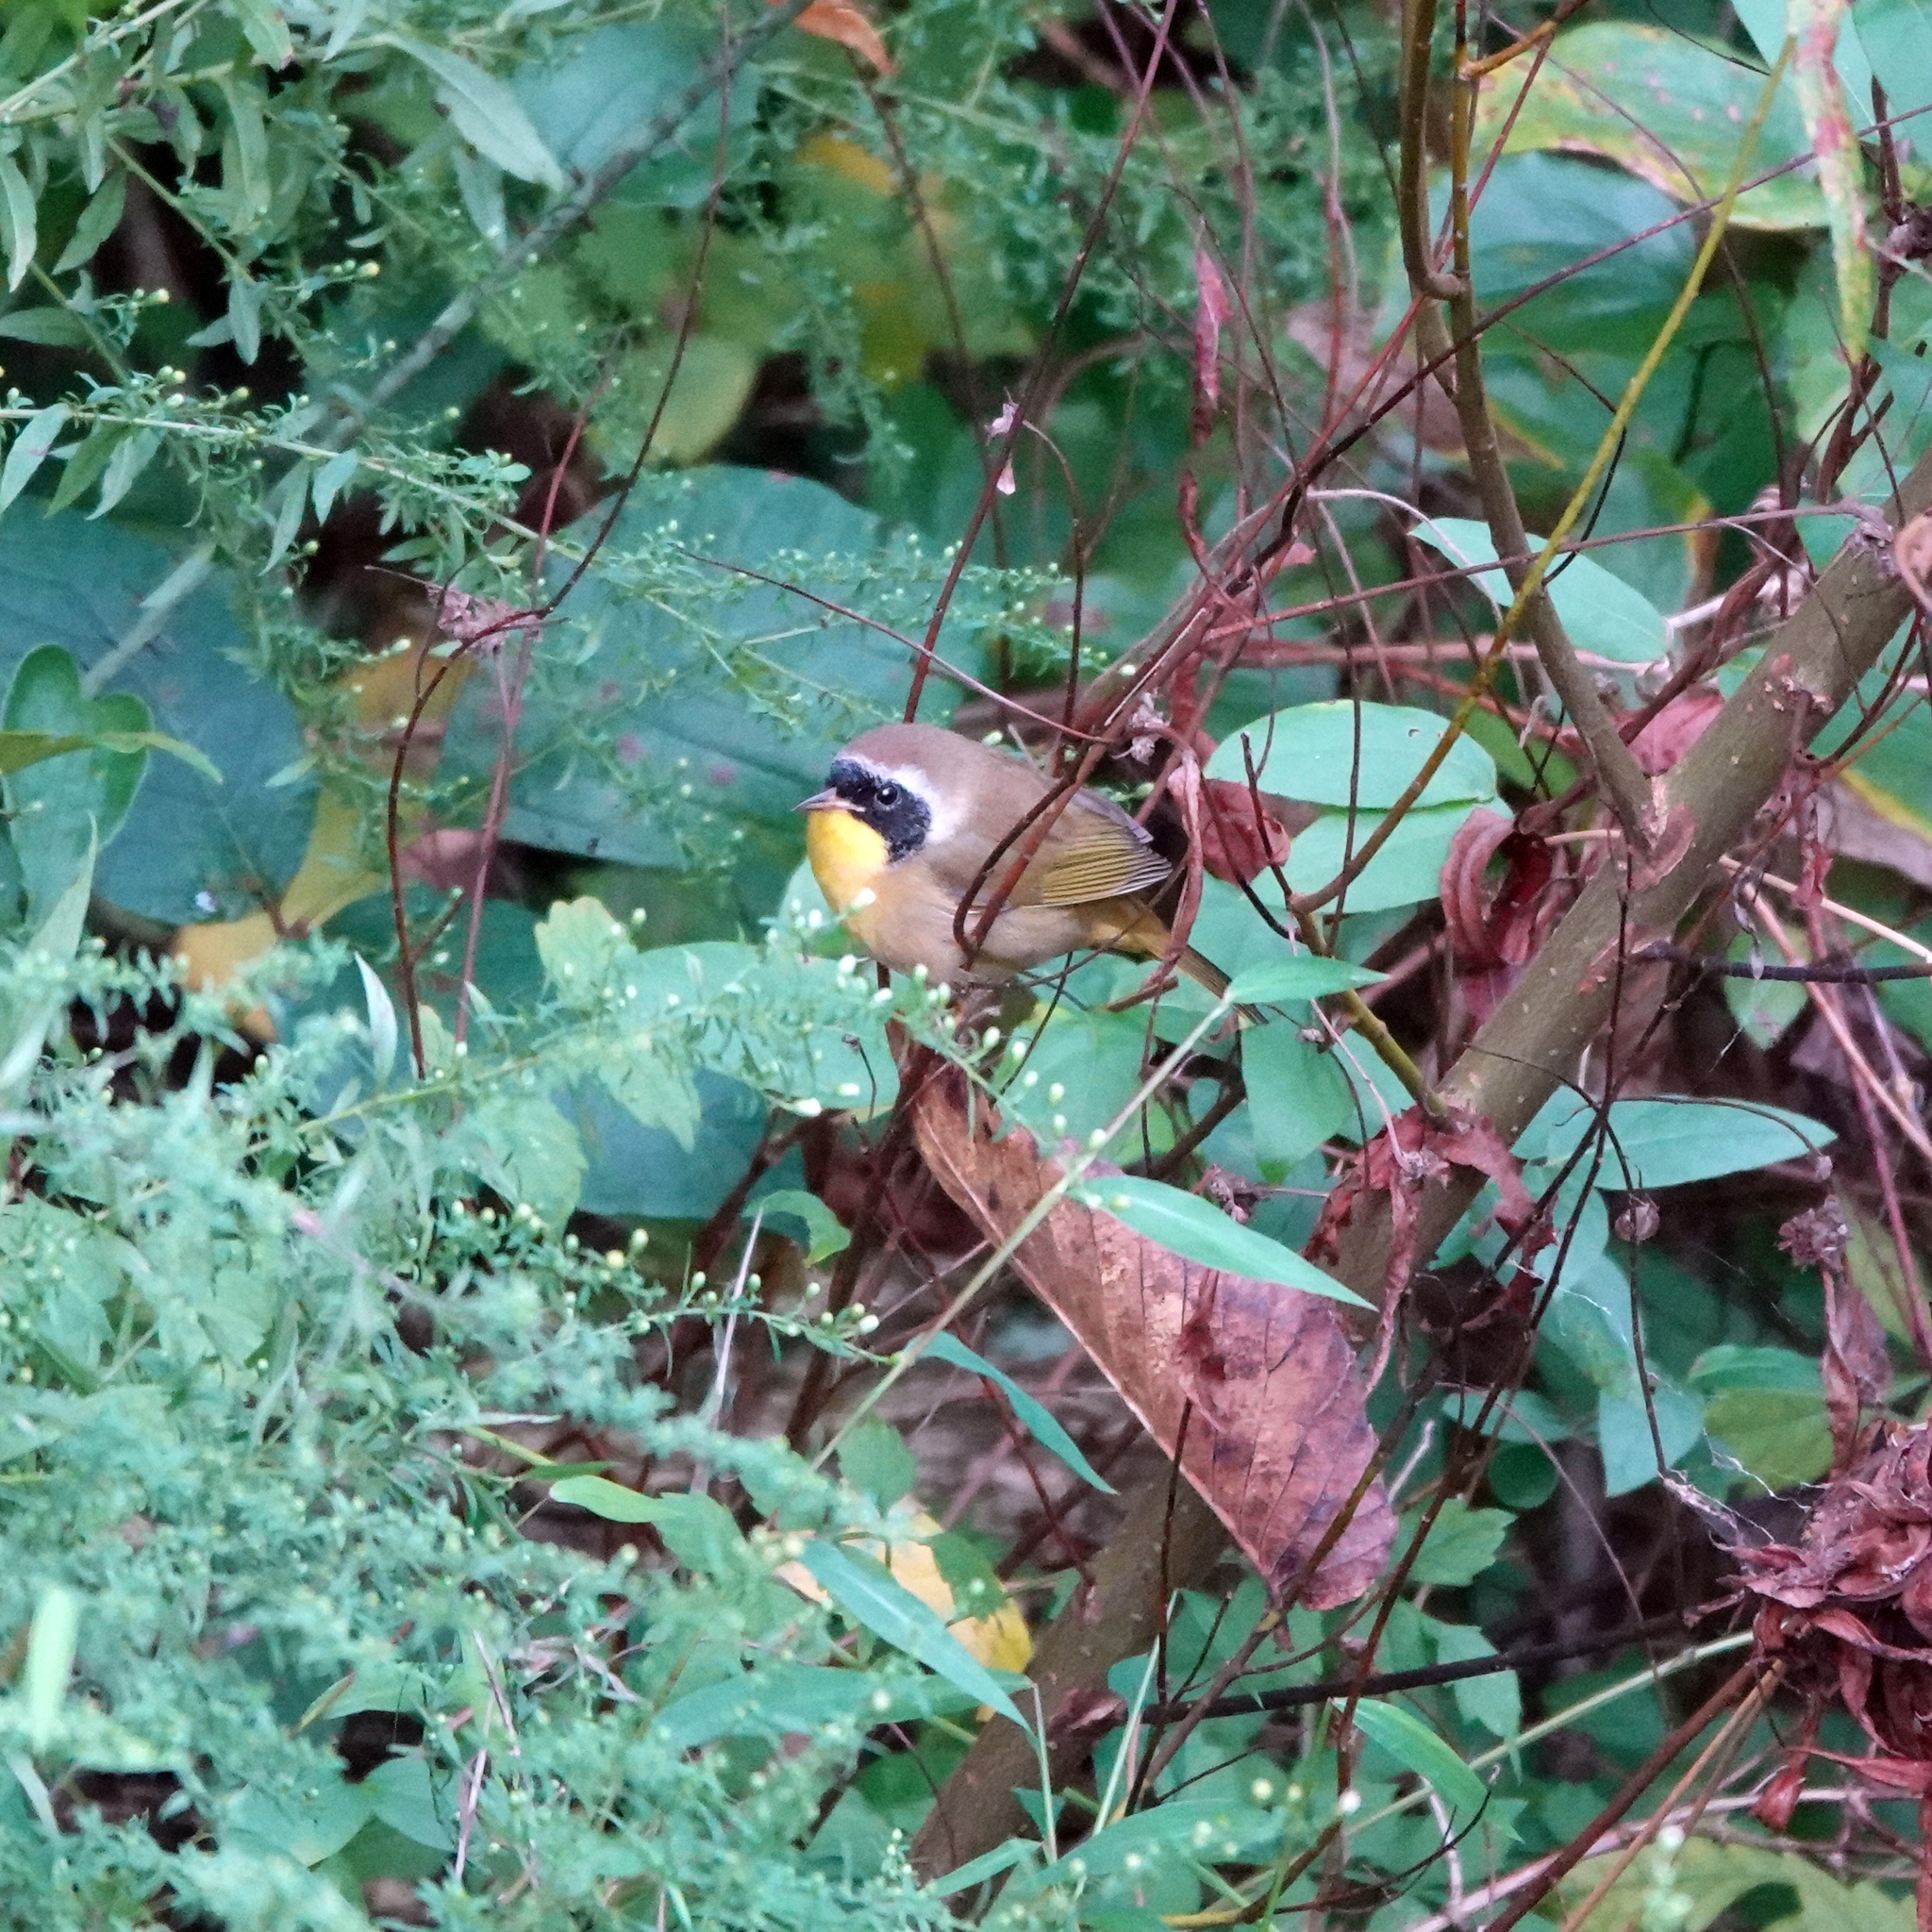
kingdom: Animalia
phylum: Chordata
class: Aves
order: Passeriformes
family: Parulidae
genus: Geothlypis
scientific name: Geothlypis trichas
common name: Common yellowthroat
